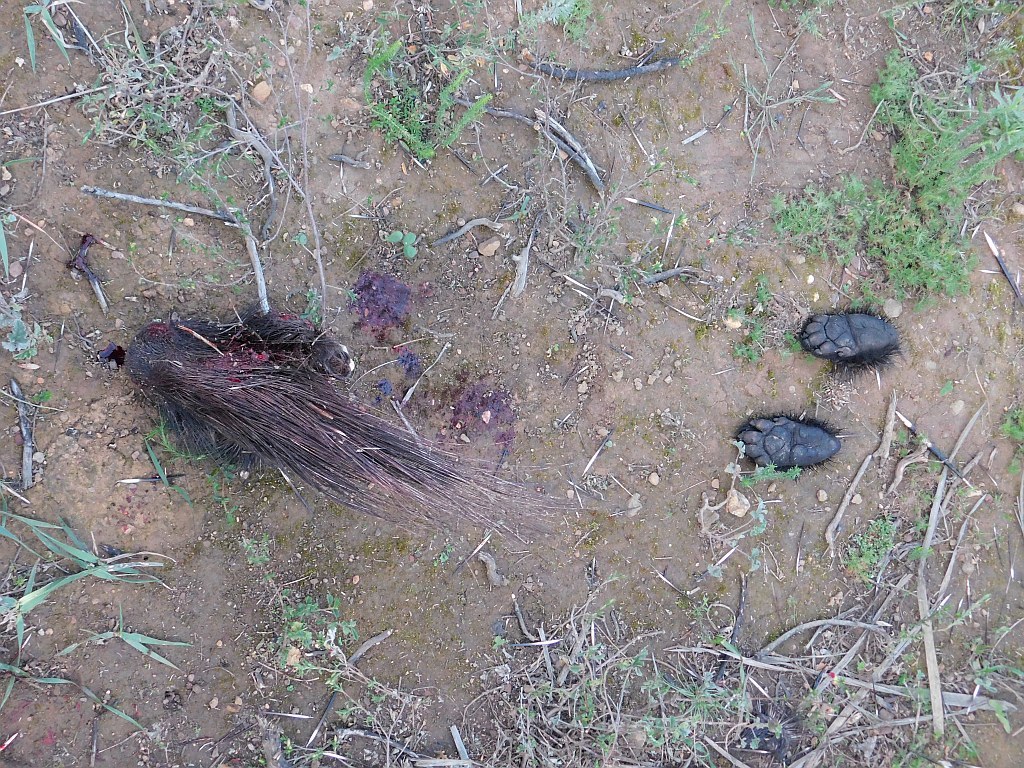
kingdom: Animalia
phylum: Chordata
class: Mammalia
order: Rodentia
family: Hystricidae
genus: Hystrix
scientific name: Hystrix africaeaustralis
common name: Cape porcupine
